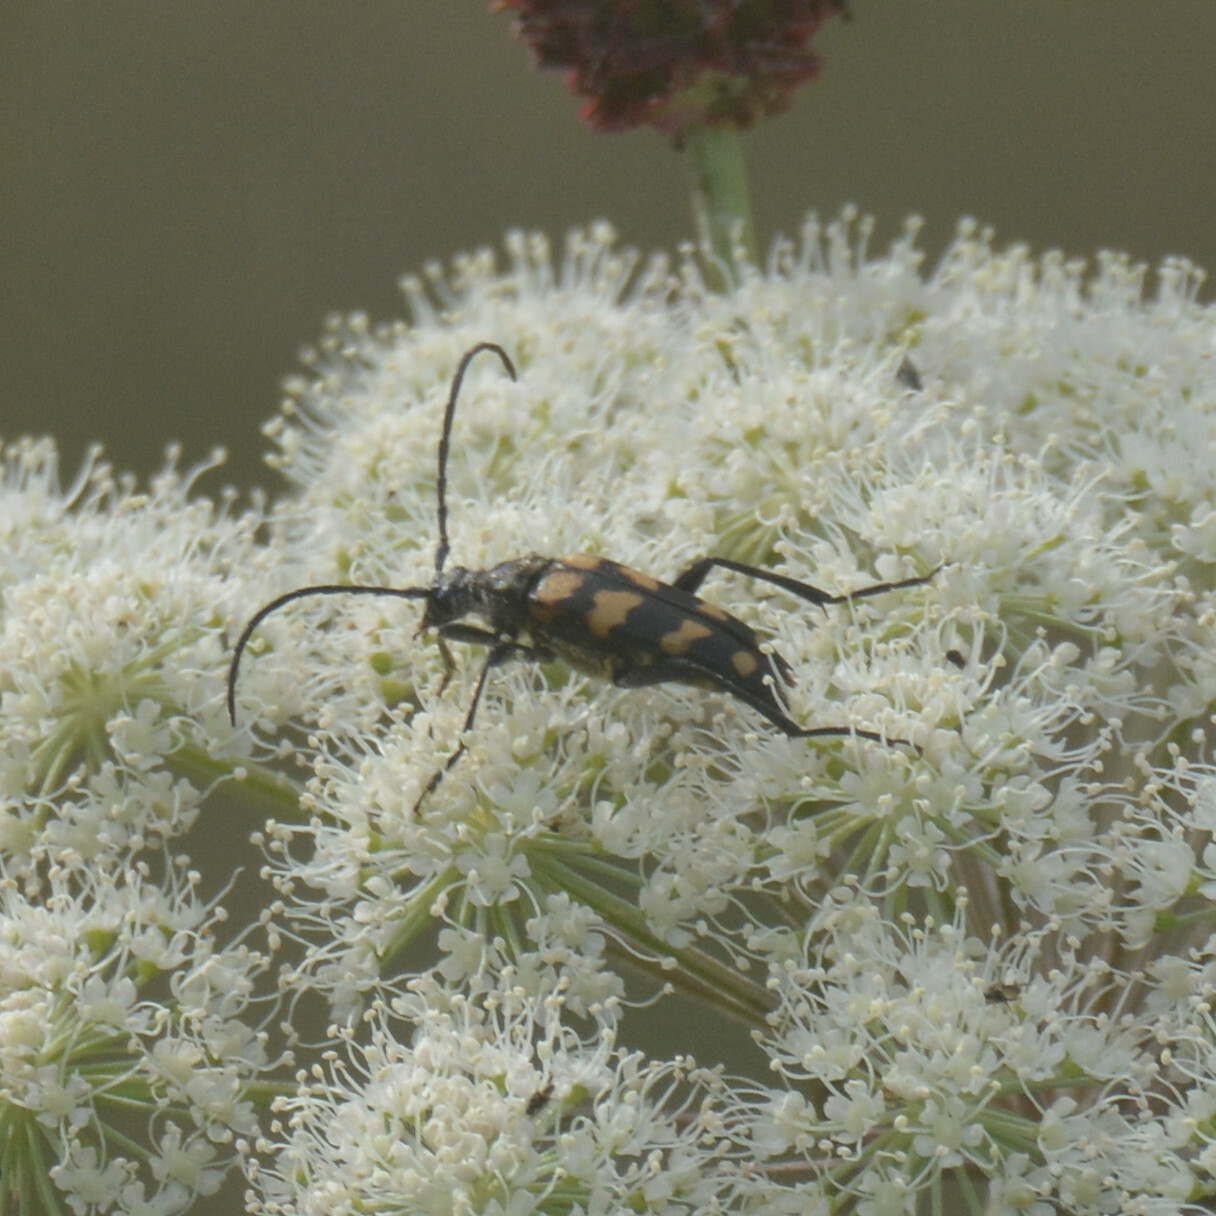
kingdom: Animalia
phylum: Arthropoda
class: Insecta
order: Coleoptera
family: Cerambycidae
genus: Leptura
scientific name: Leptura quadrifasciata
